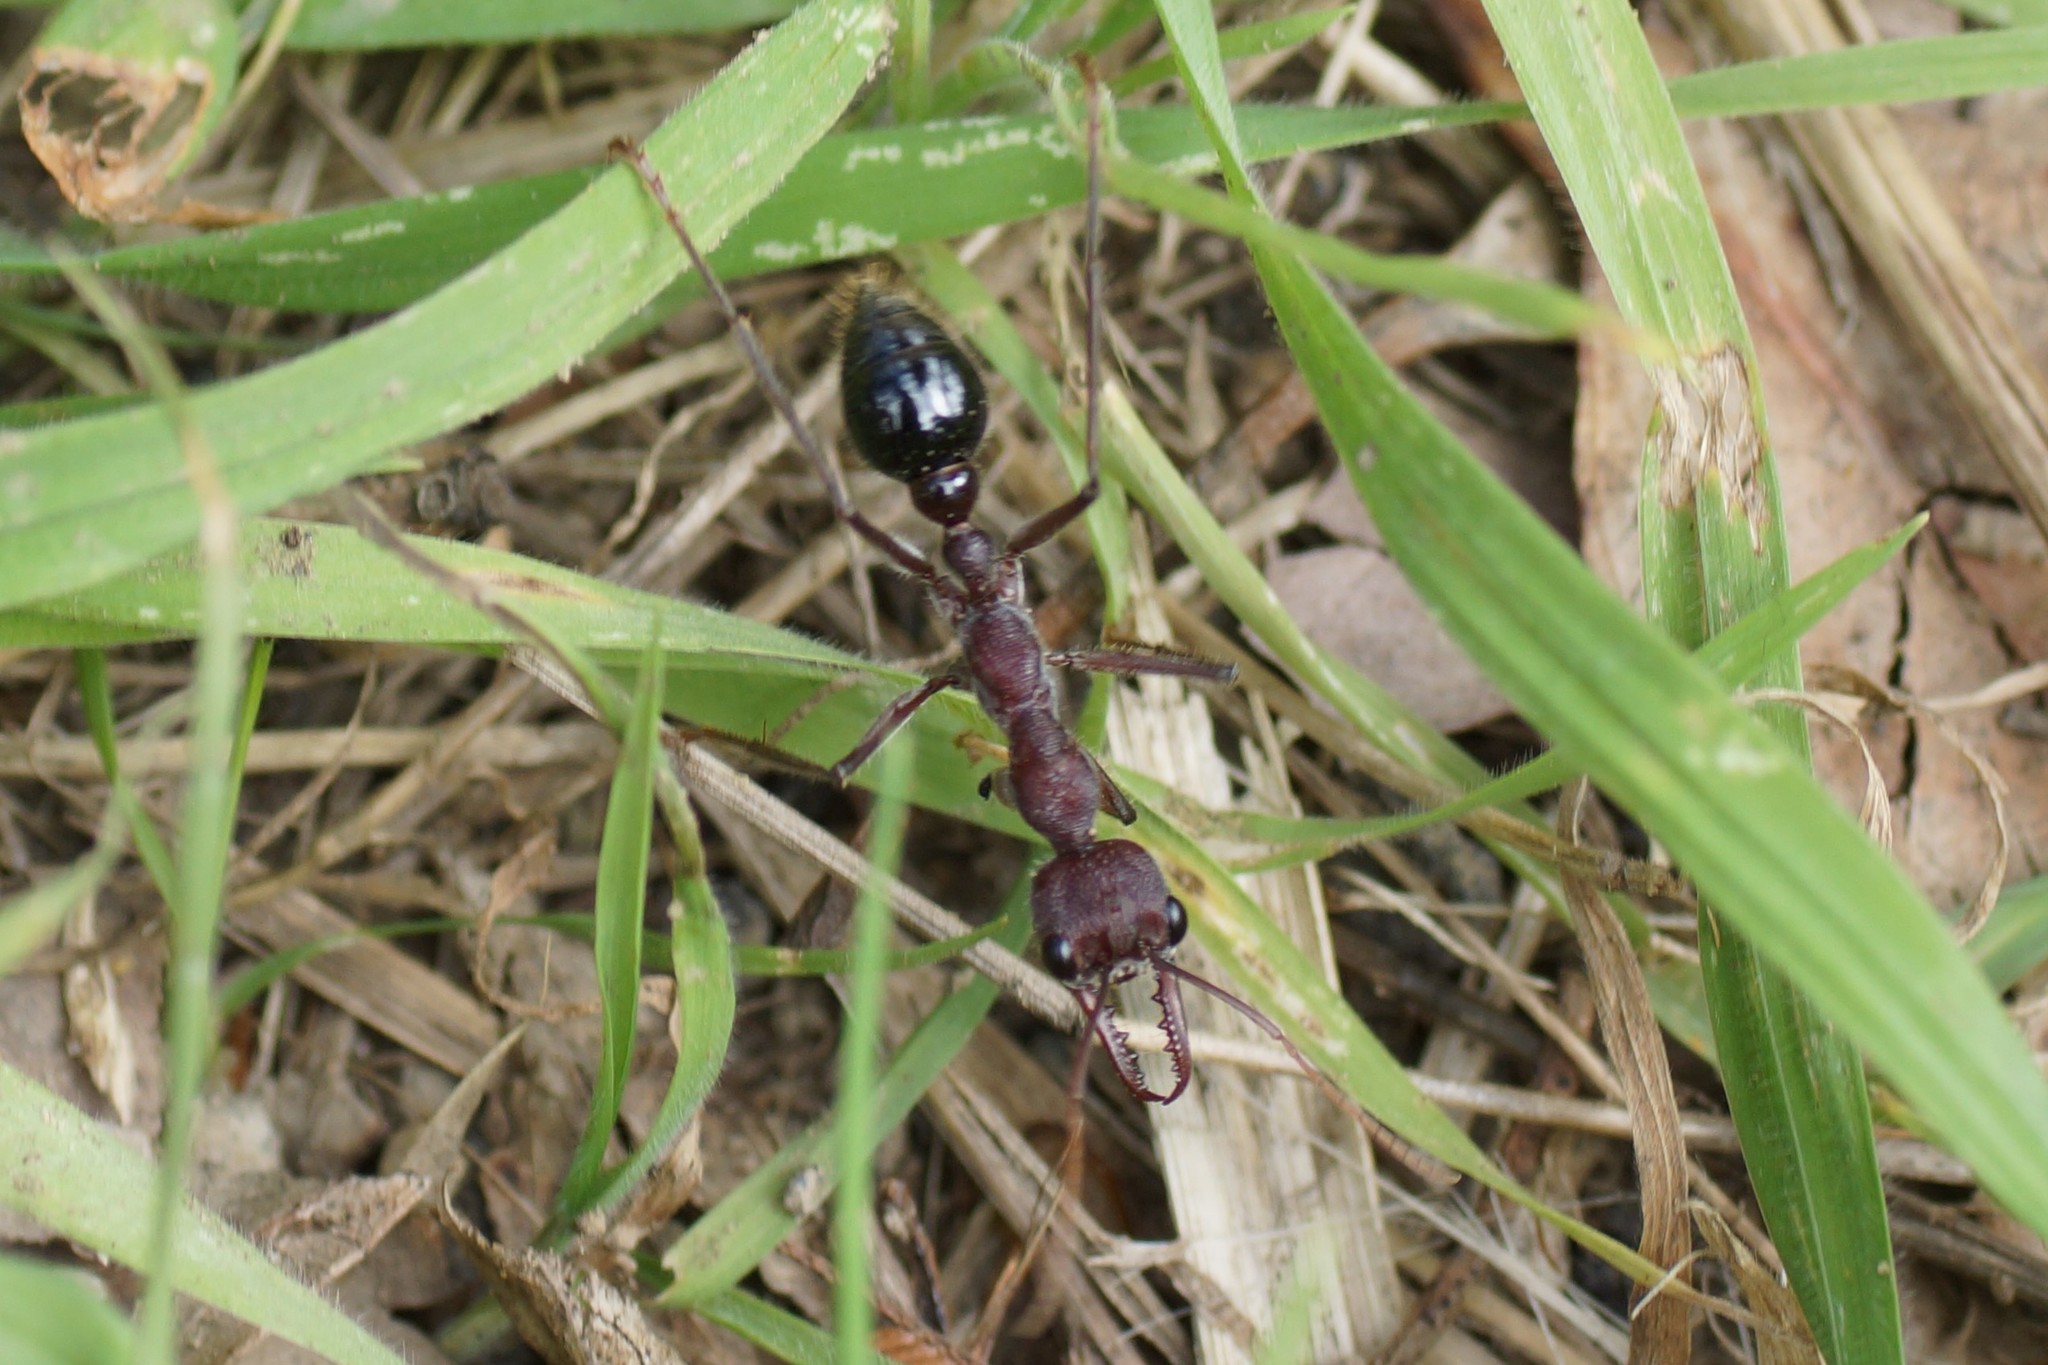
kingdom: Animalia
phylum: Arthropoda
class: Insecta
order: Hymenoptera
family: Formicidae
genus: Myrmecia
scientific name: Myrmecia simillima
